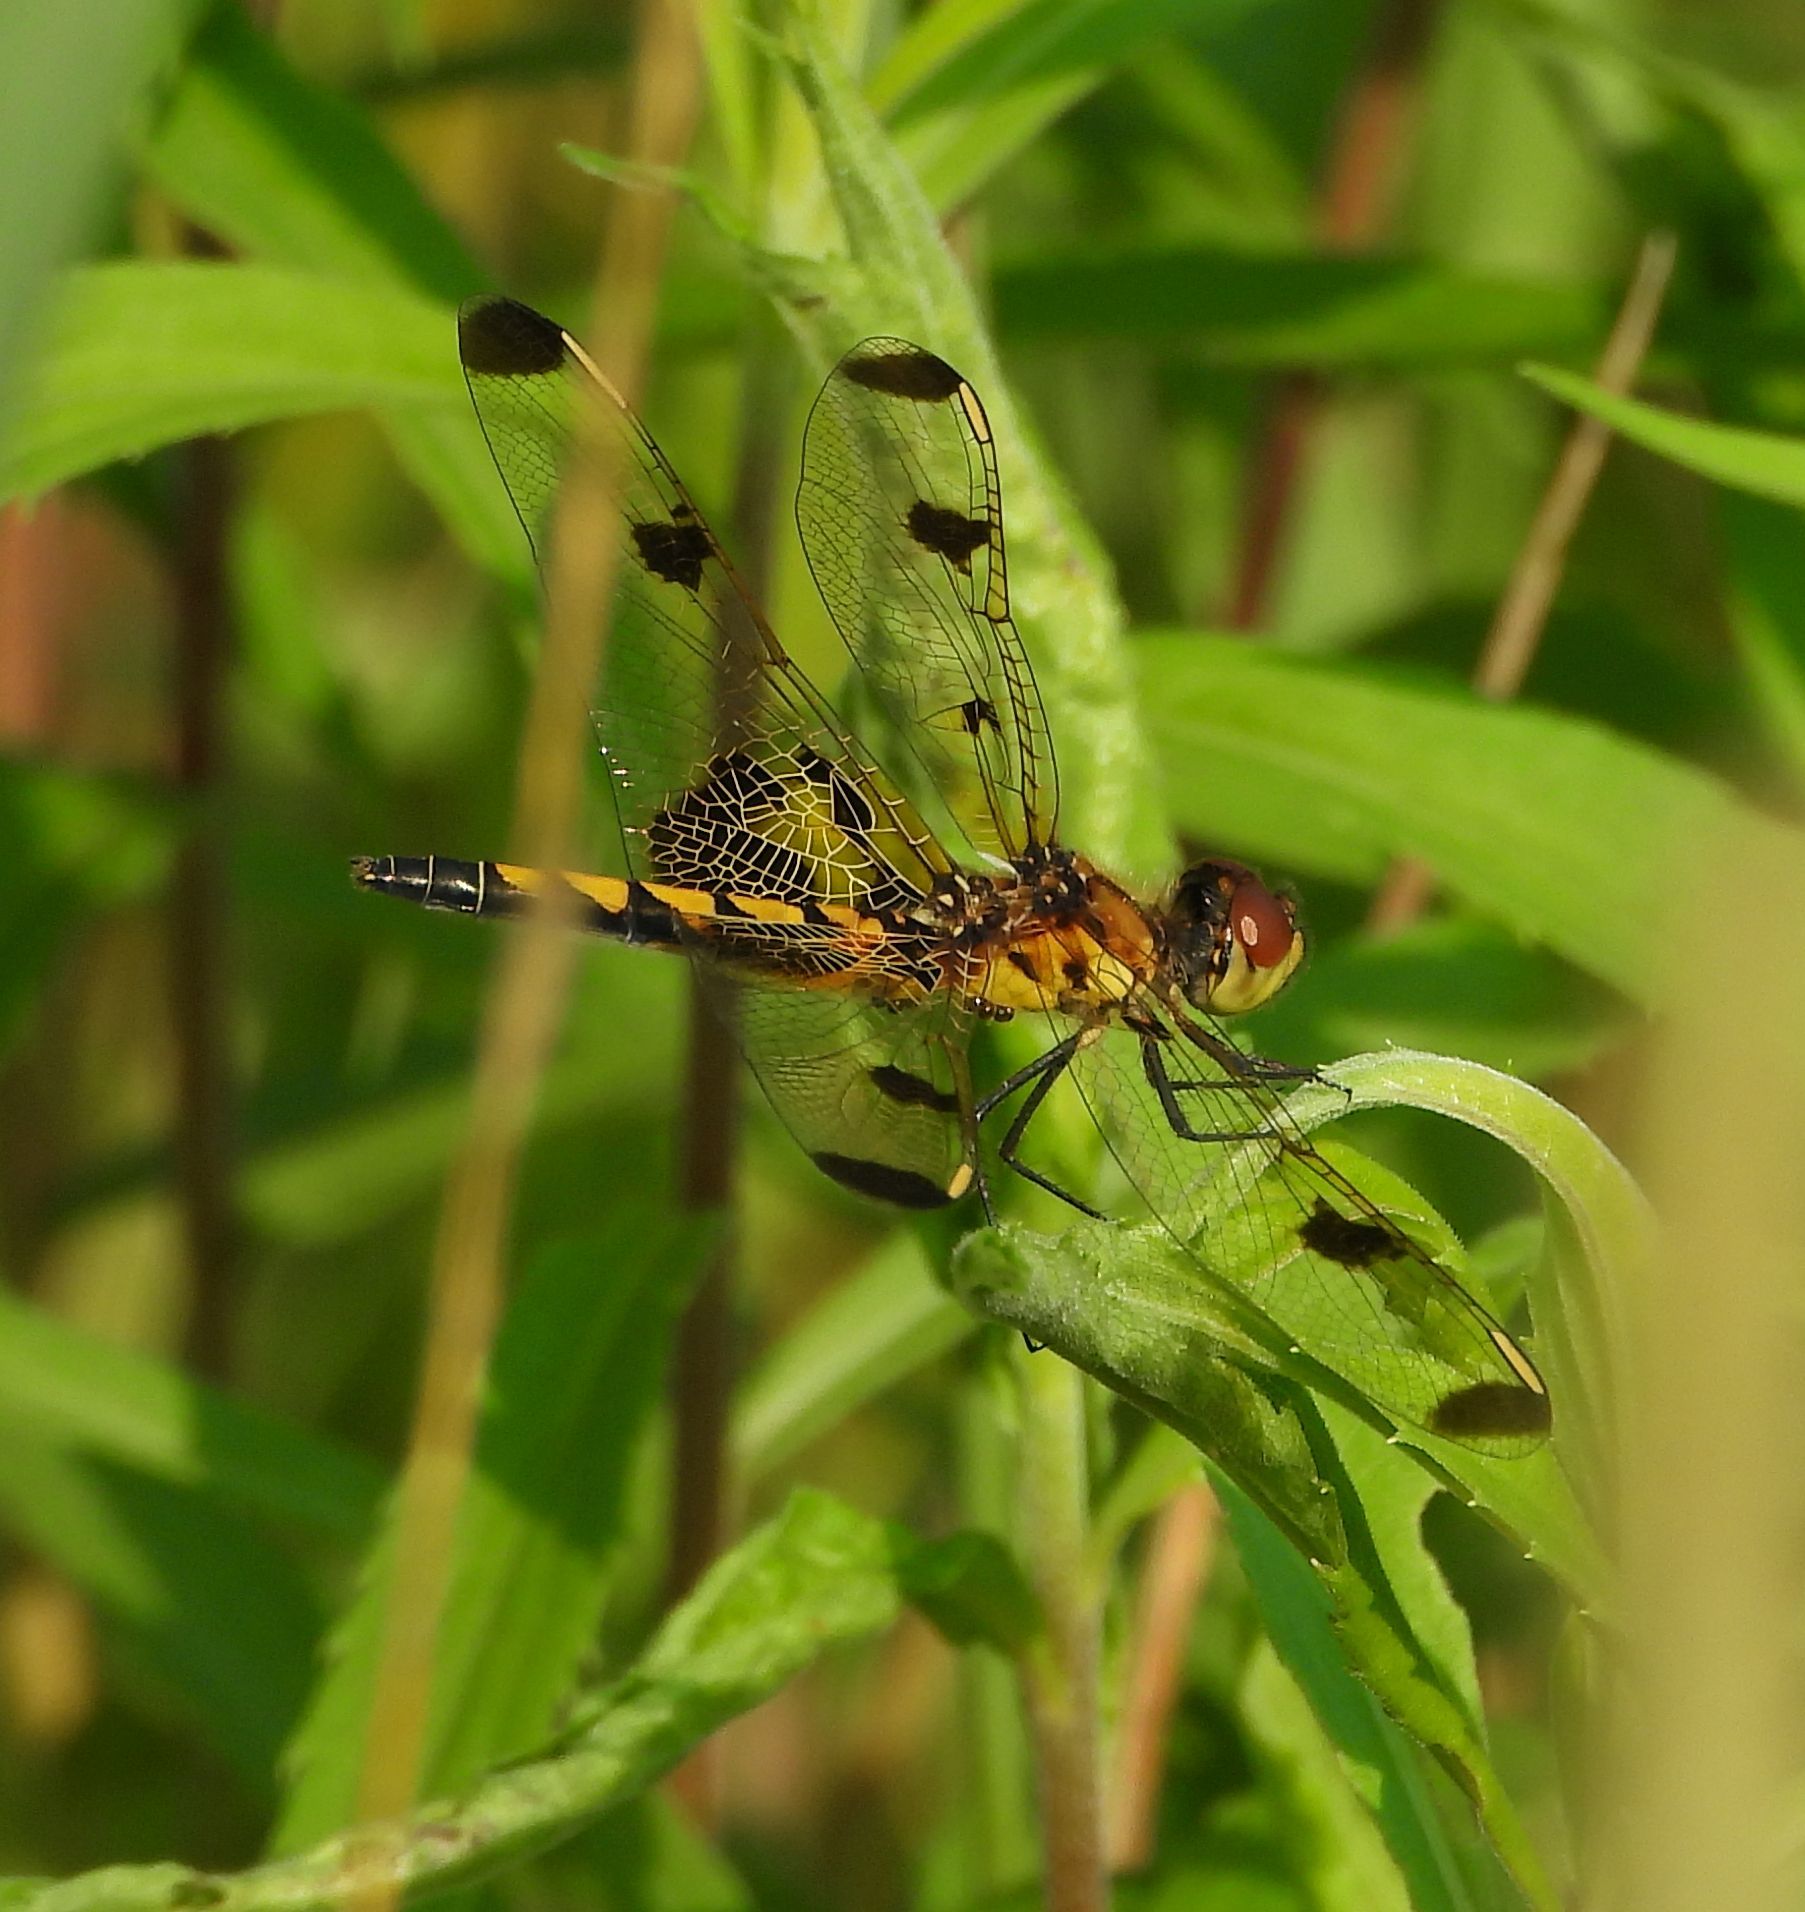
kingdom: Animalia
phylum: Arthropoda
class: Insecta
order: Odonata
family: Libellulidae
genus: Celithemis
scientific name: Celithemis elisa
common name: Calico pennant
